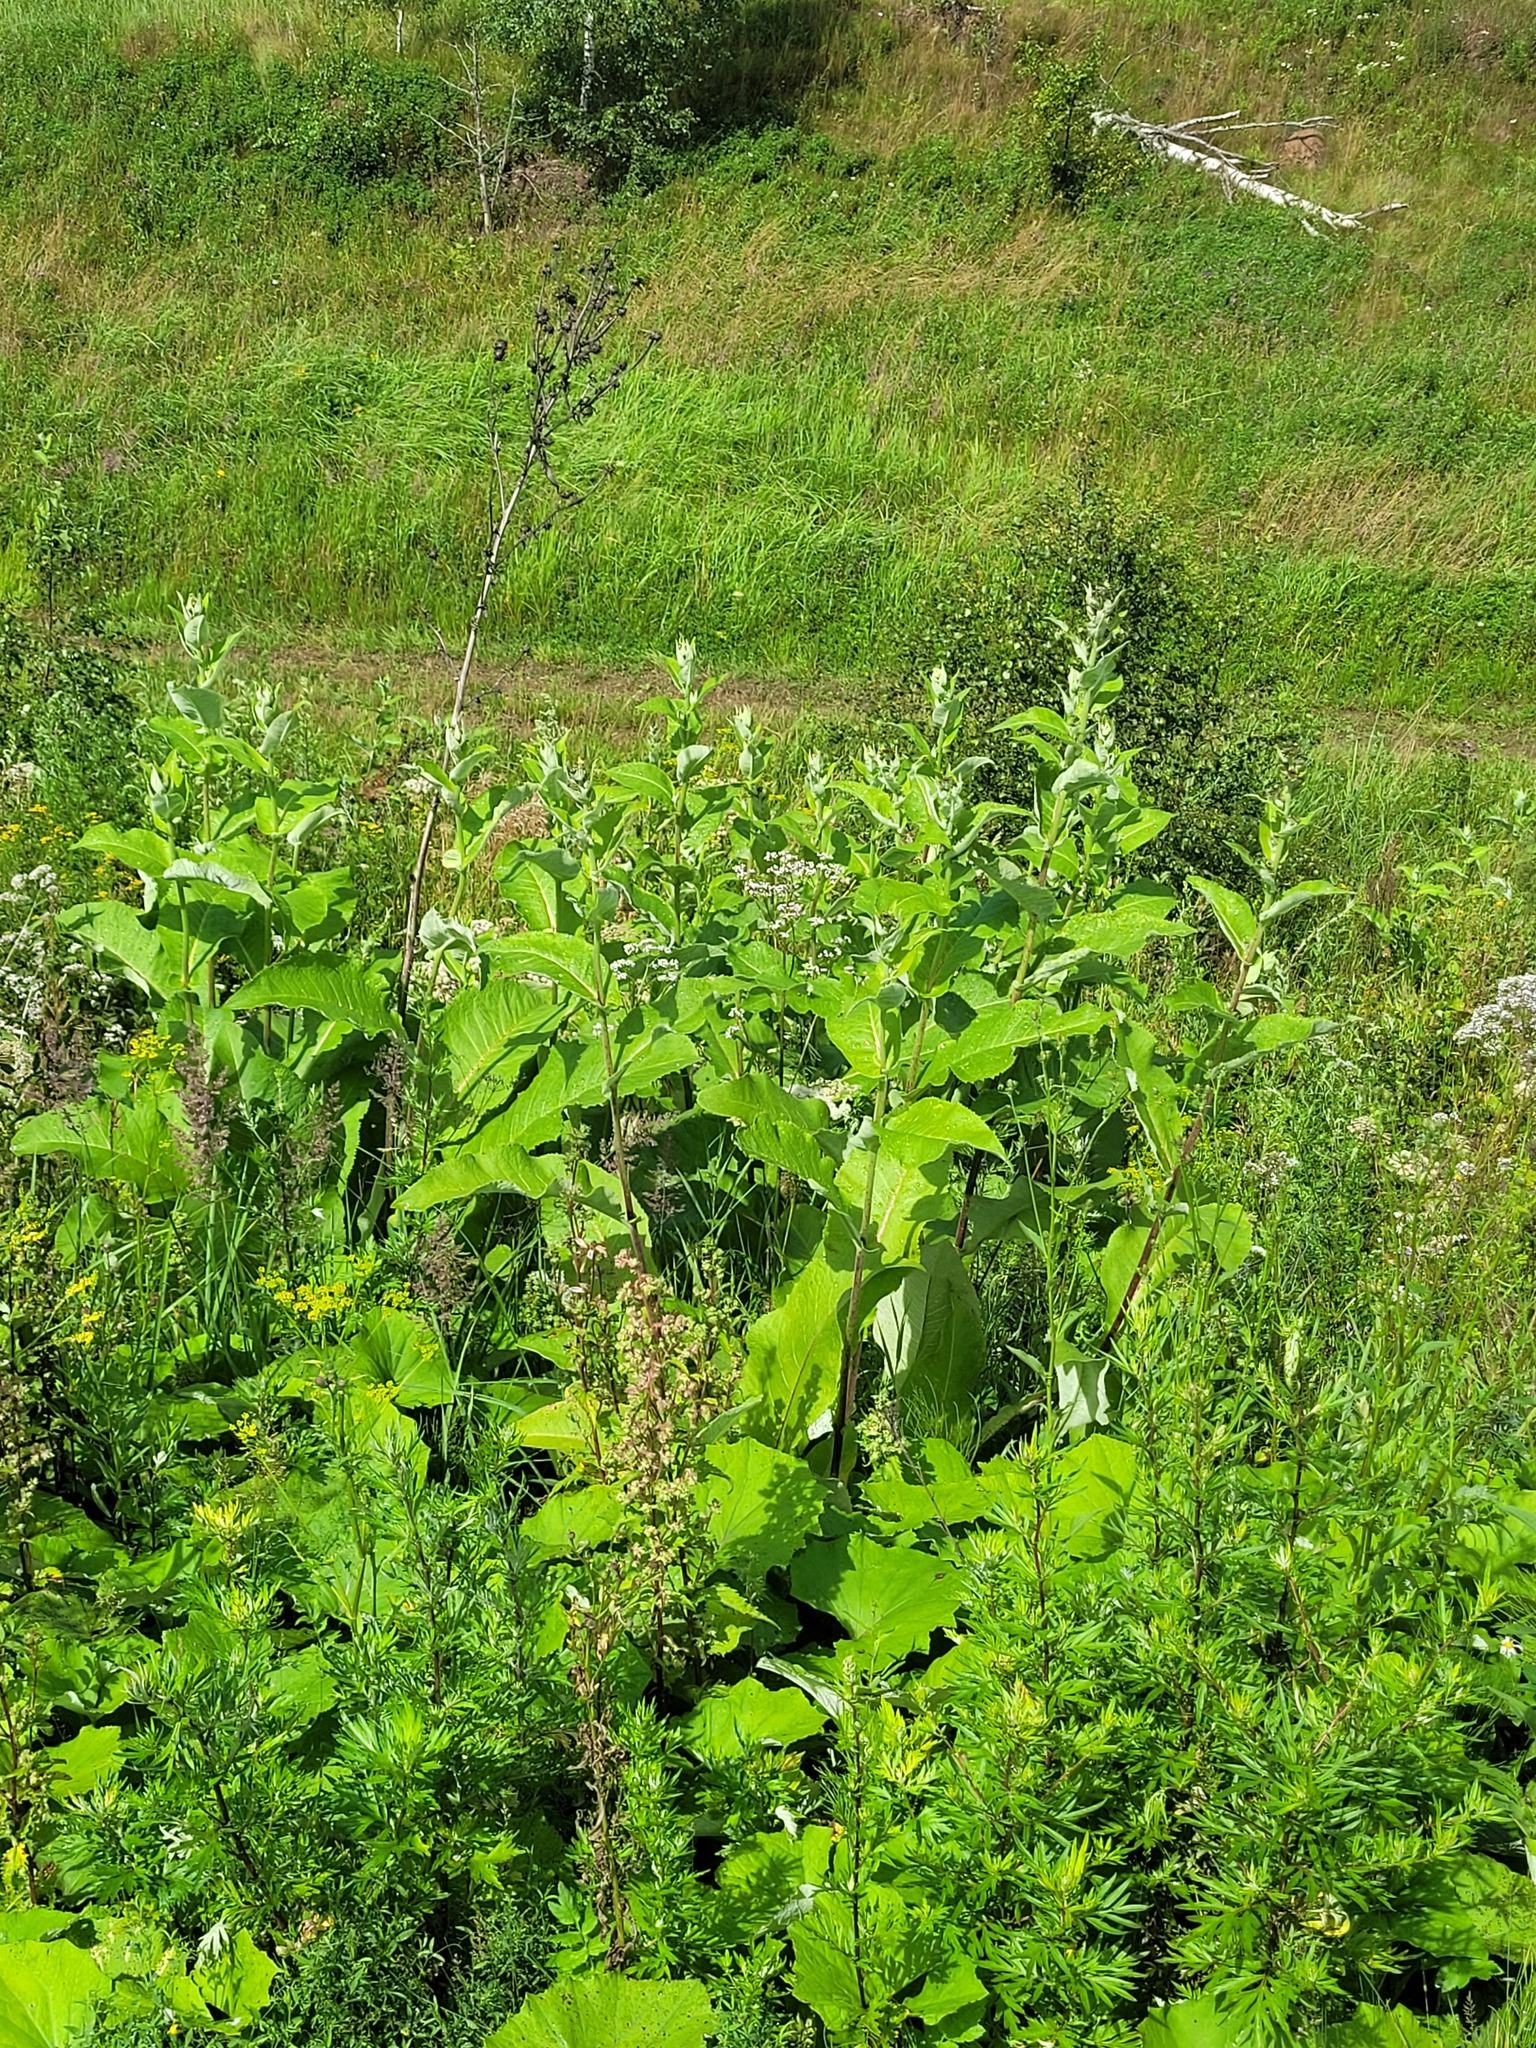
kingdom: Plantae
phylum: Tracheophyta
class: Magnoliopsida
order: Asterales
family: Asteraceae
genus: Inula
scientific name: Inula helenium
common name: Elecampane
